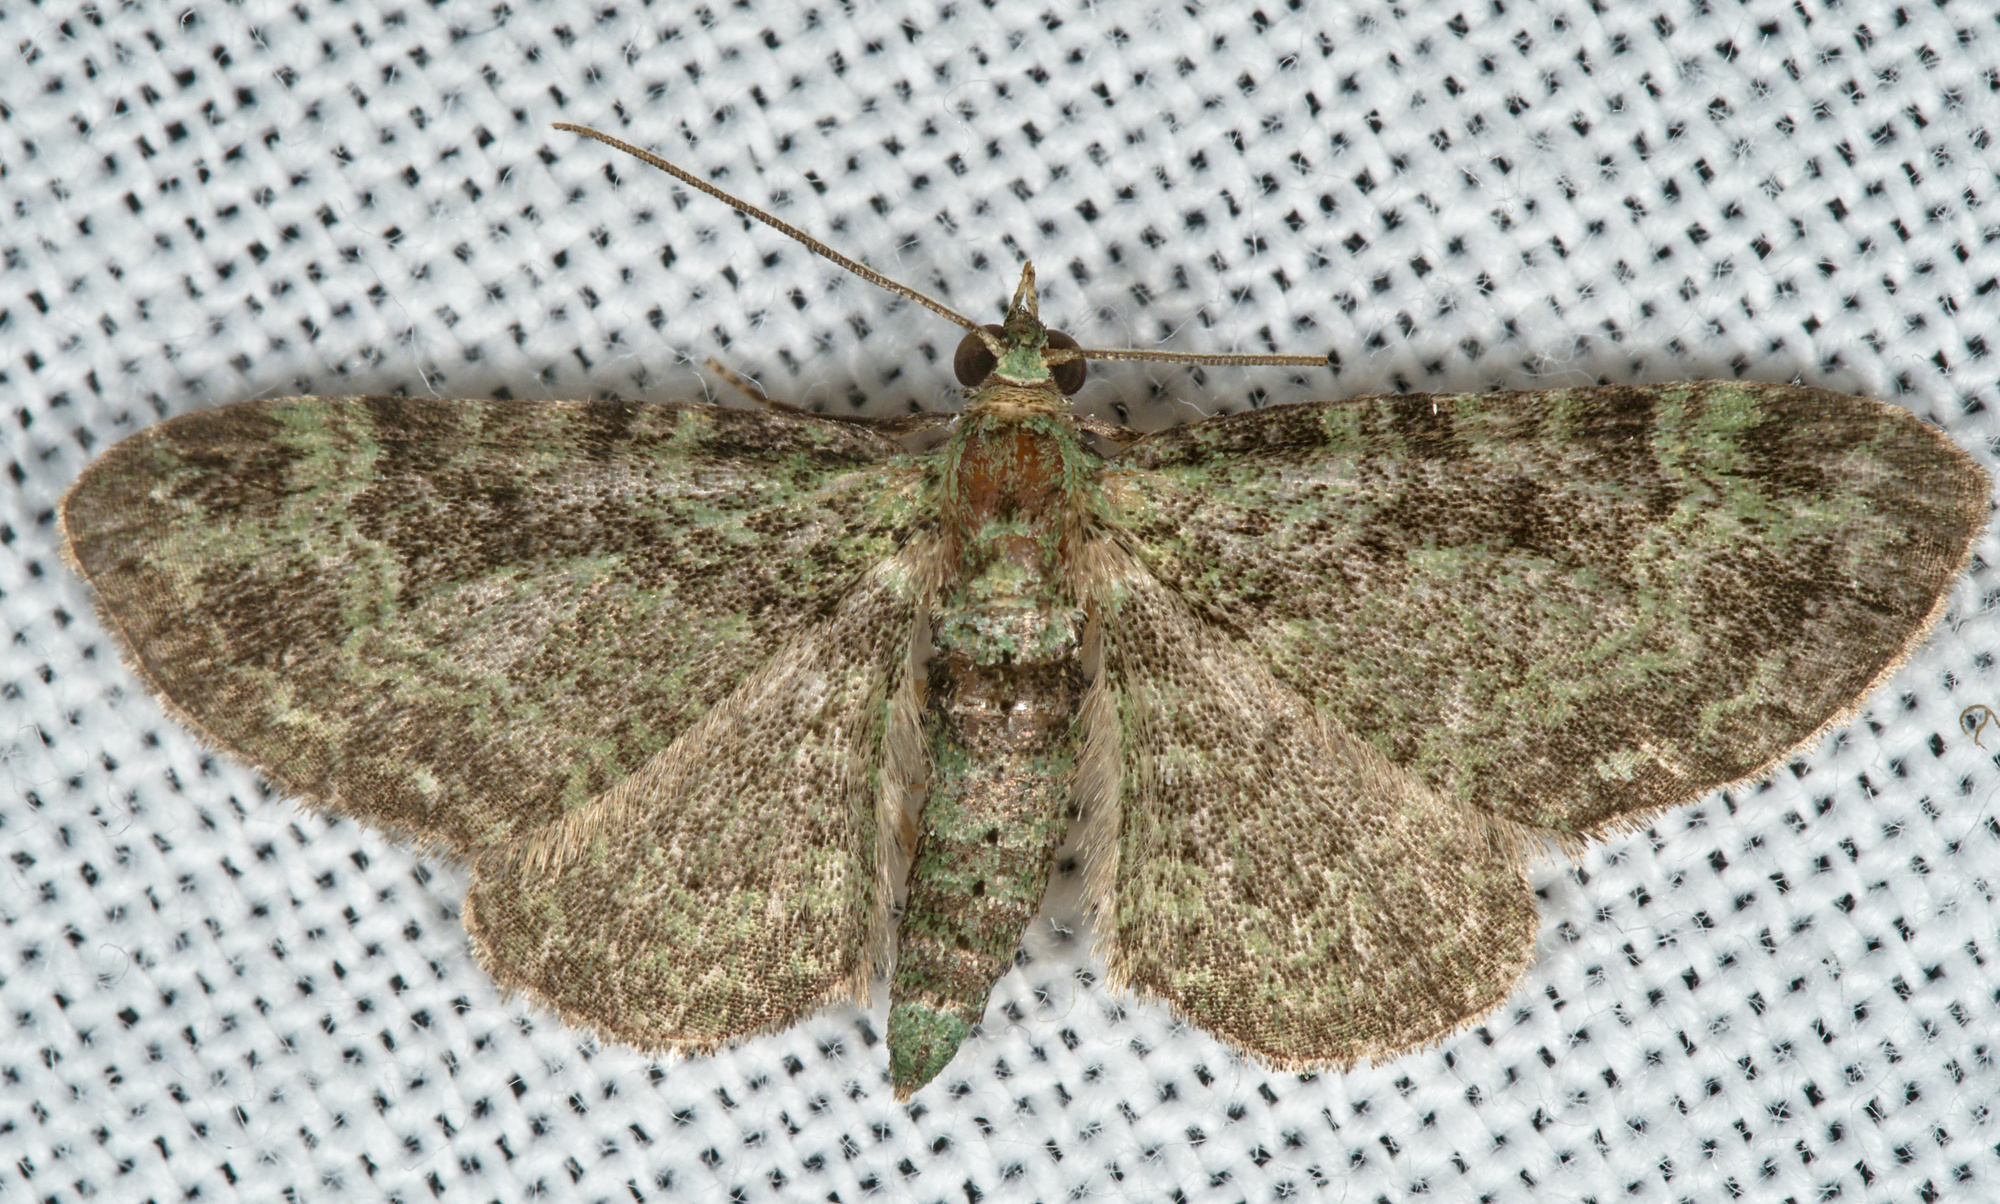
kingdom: Animalia
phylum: Arthropoda
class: Insecta
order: Lepidoptera
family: Geometridae
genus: Pasiphila
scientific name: Pasiphila rectangulata
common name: Green pug
